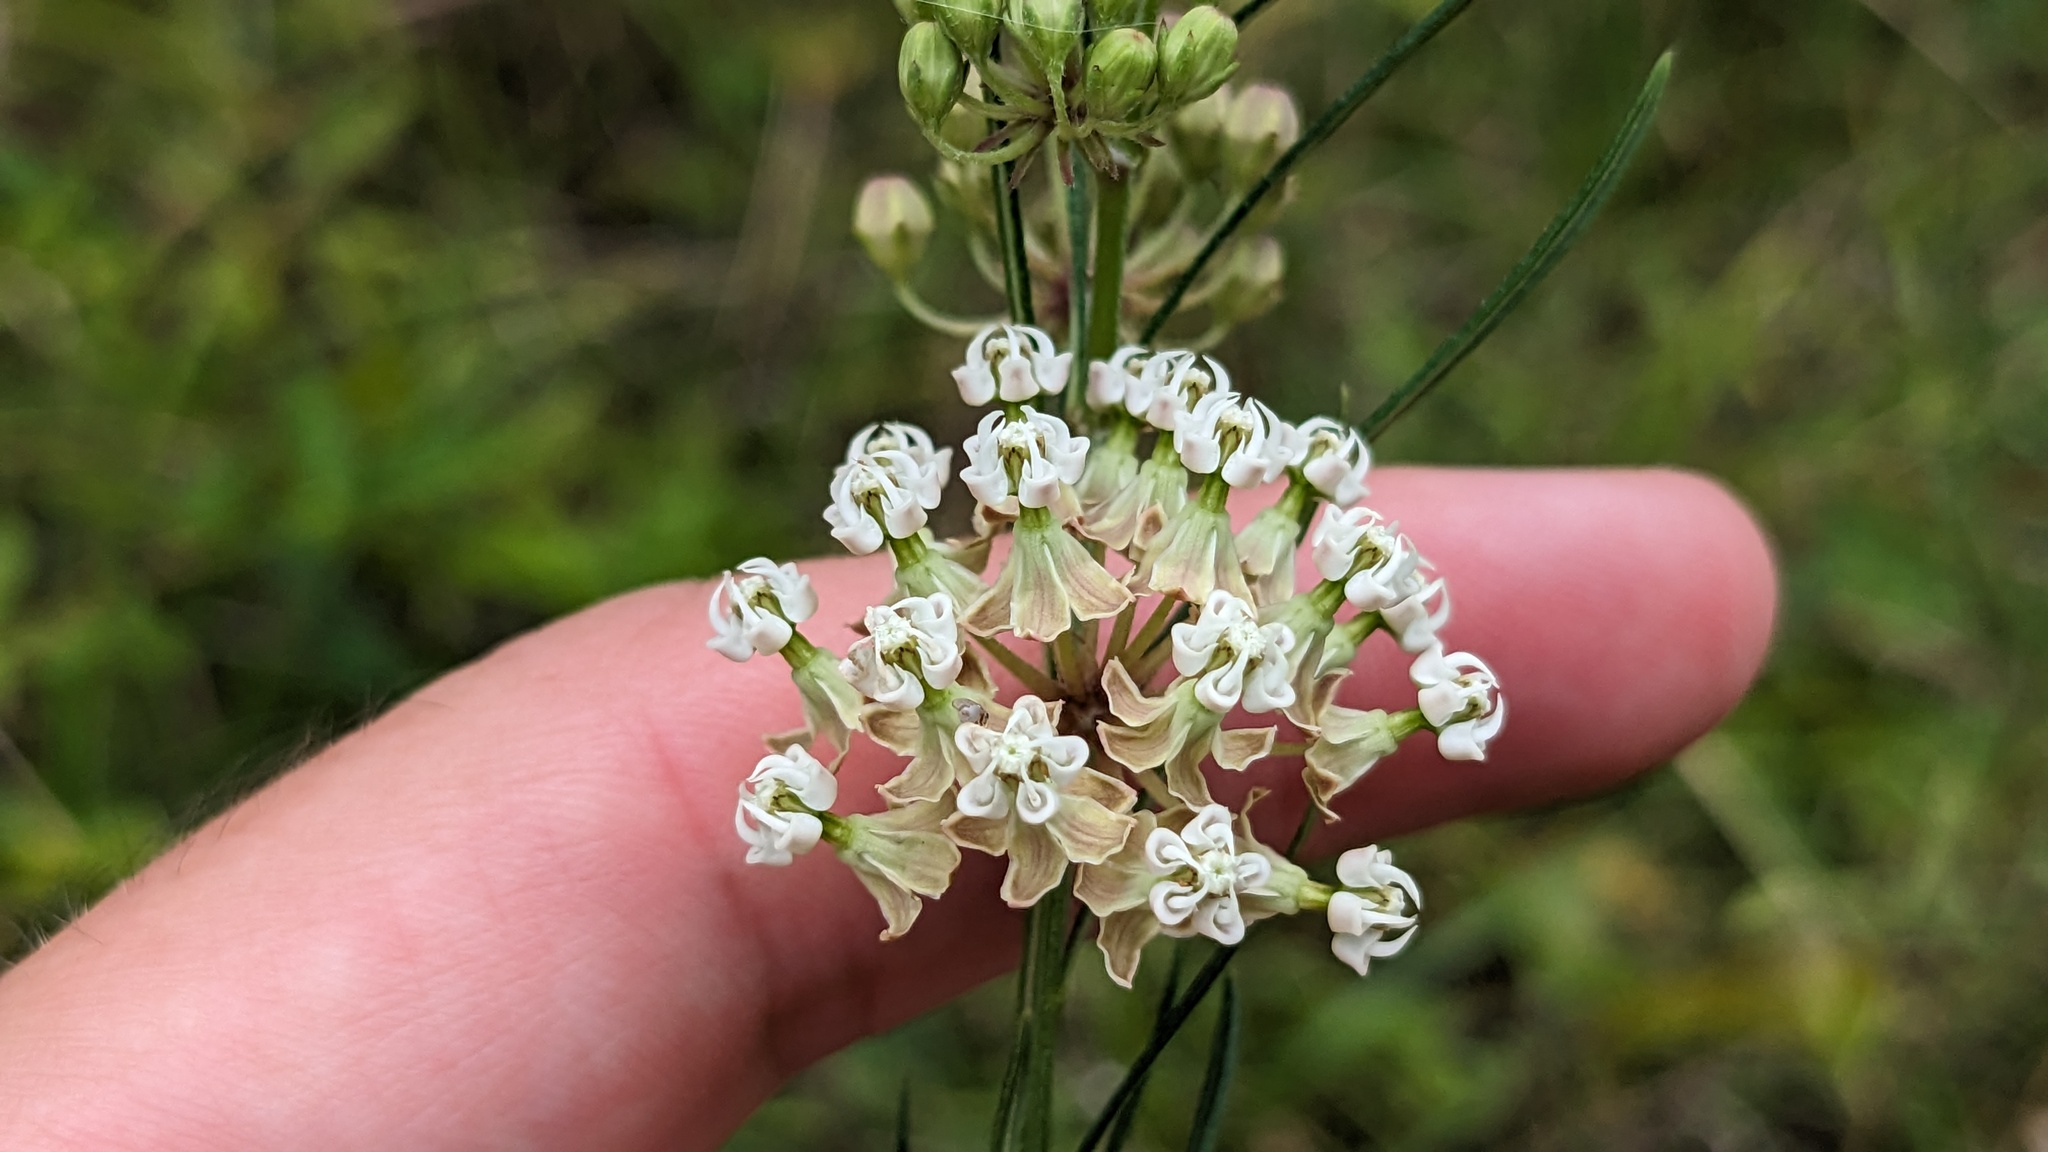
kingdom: Plantae
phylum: Tracheophyta
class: Magnoliopsida
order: Gentianales
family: Apocynaceae
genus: Asclepias
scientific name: Asclepias verticillata
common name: Eastern whorled milkweed
